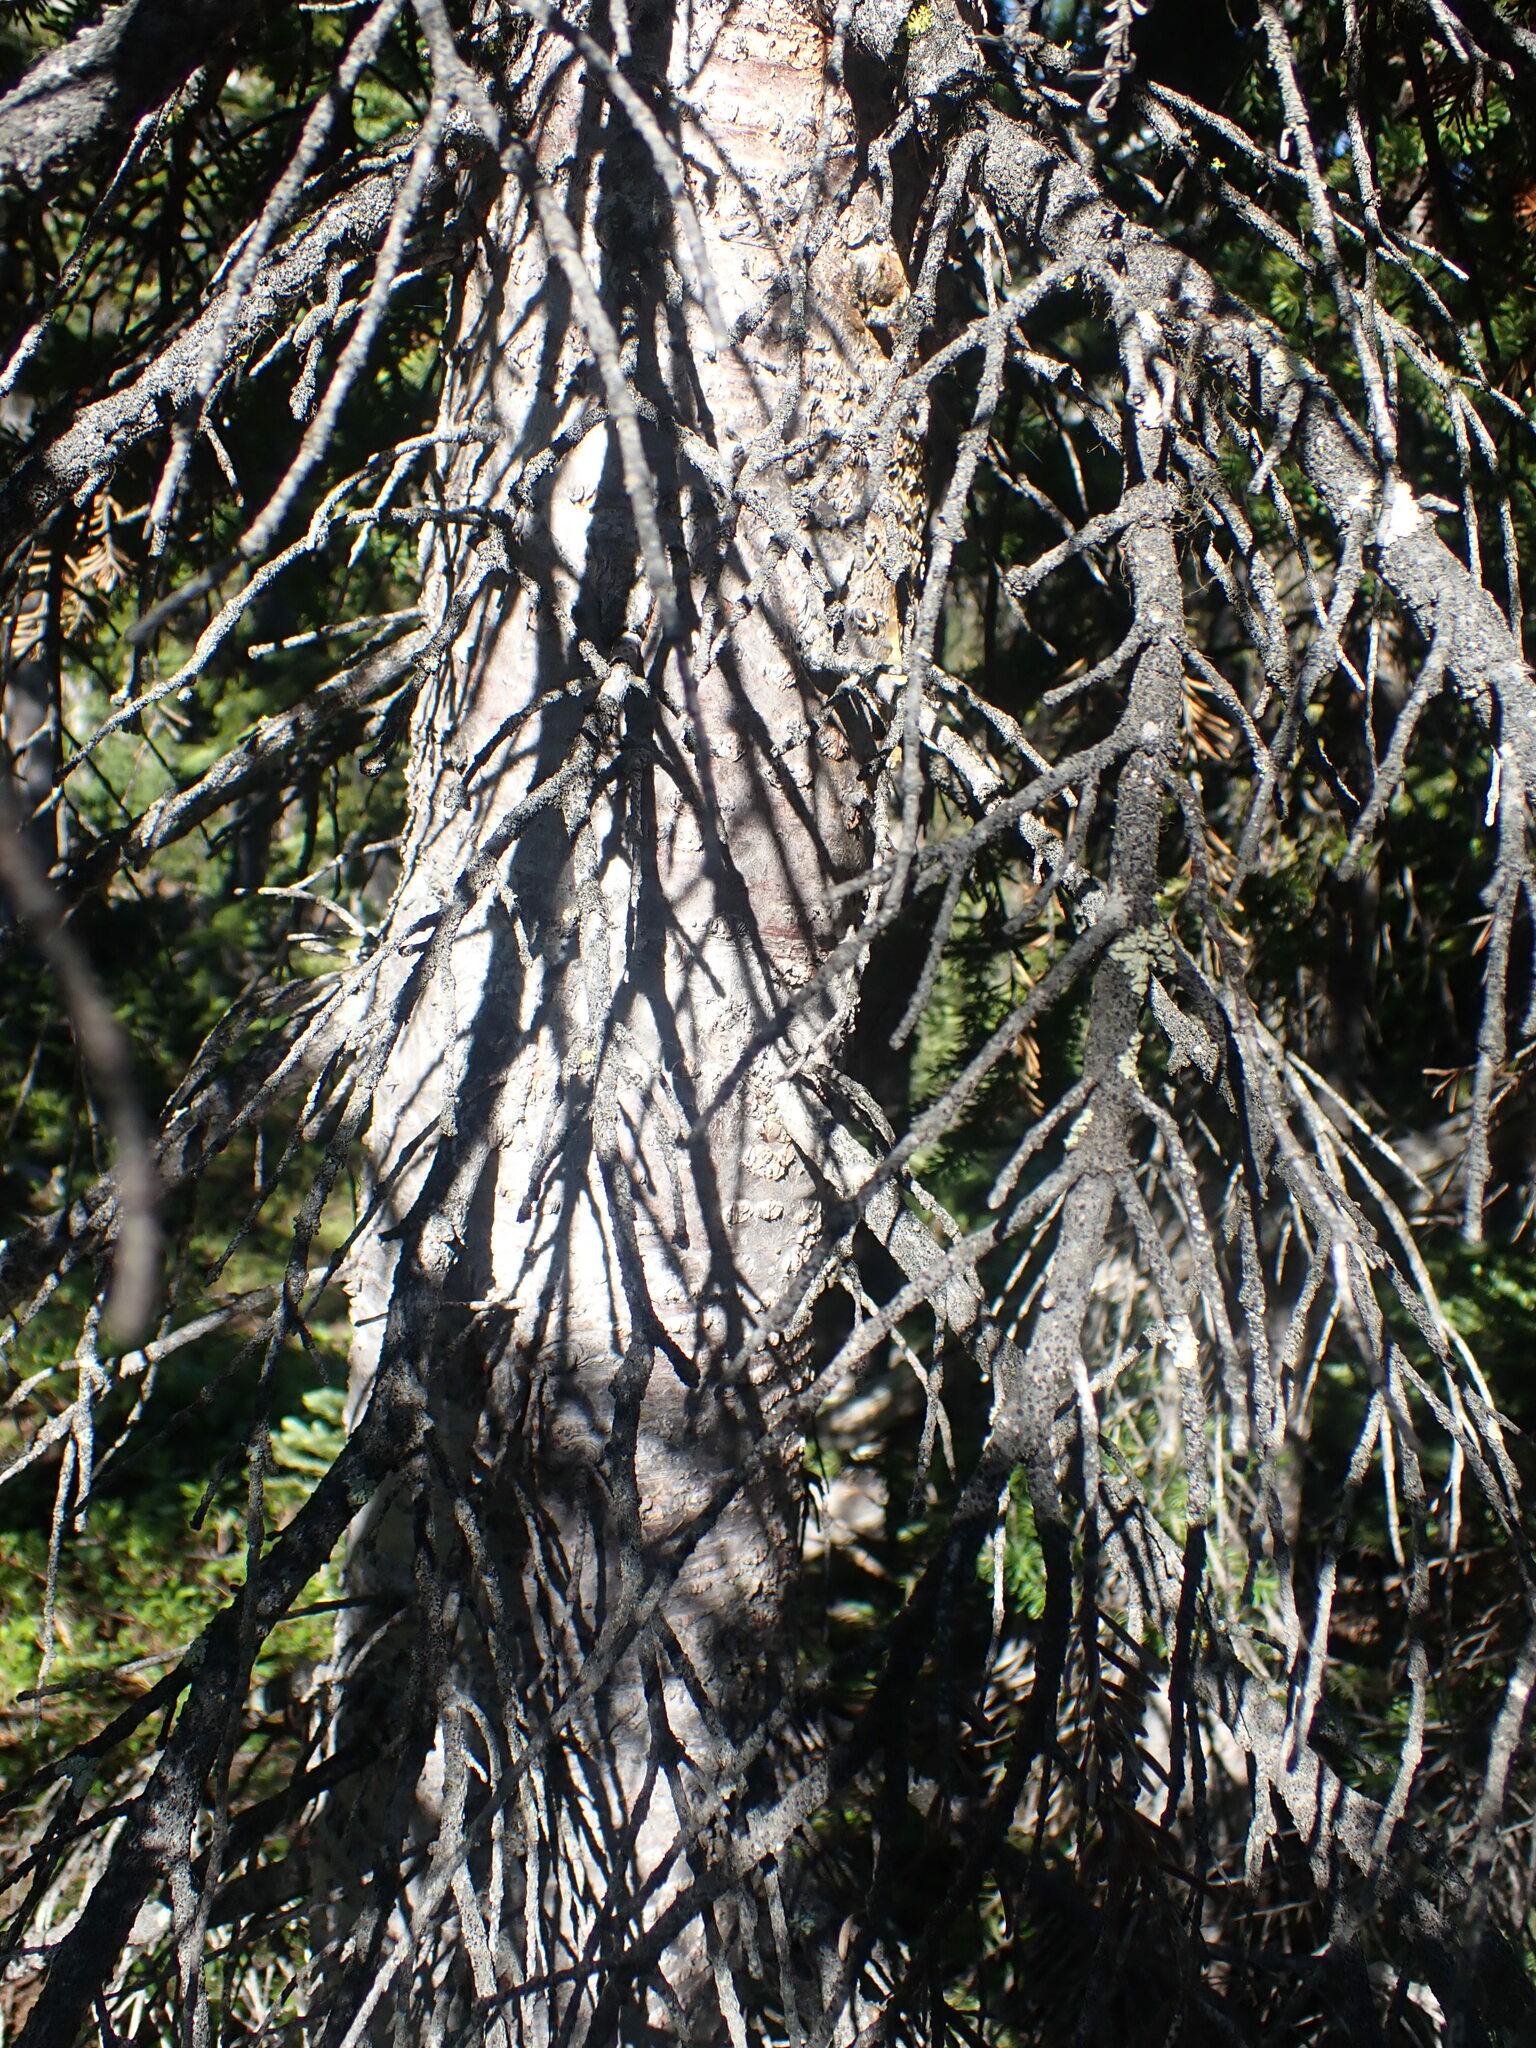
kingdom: Plantae
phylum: Tracheophyta
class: Pinopsida
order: Pinales
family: Pinaceae
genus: Abies
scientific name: Abies lasiocarpa
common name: Subalpine fir
